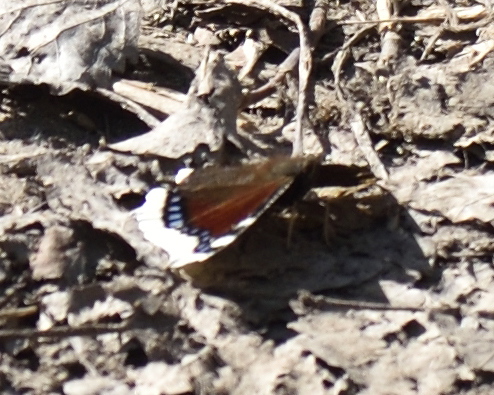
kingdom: Animalia
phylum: Arthropoda
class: Insecta
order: Lepidoptera
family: Nymphalidae
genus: Nymphalis
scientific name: Nymphalis antiopa
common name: Camberwell beauty
